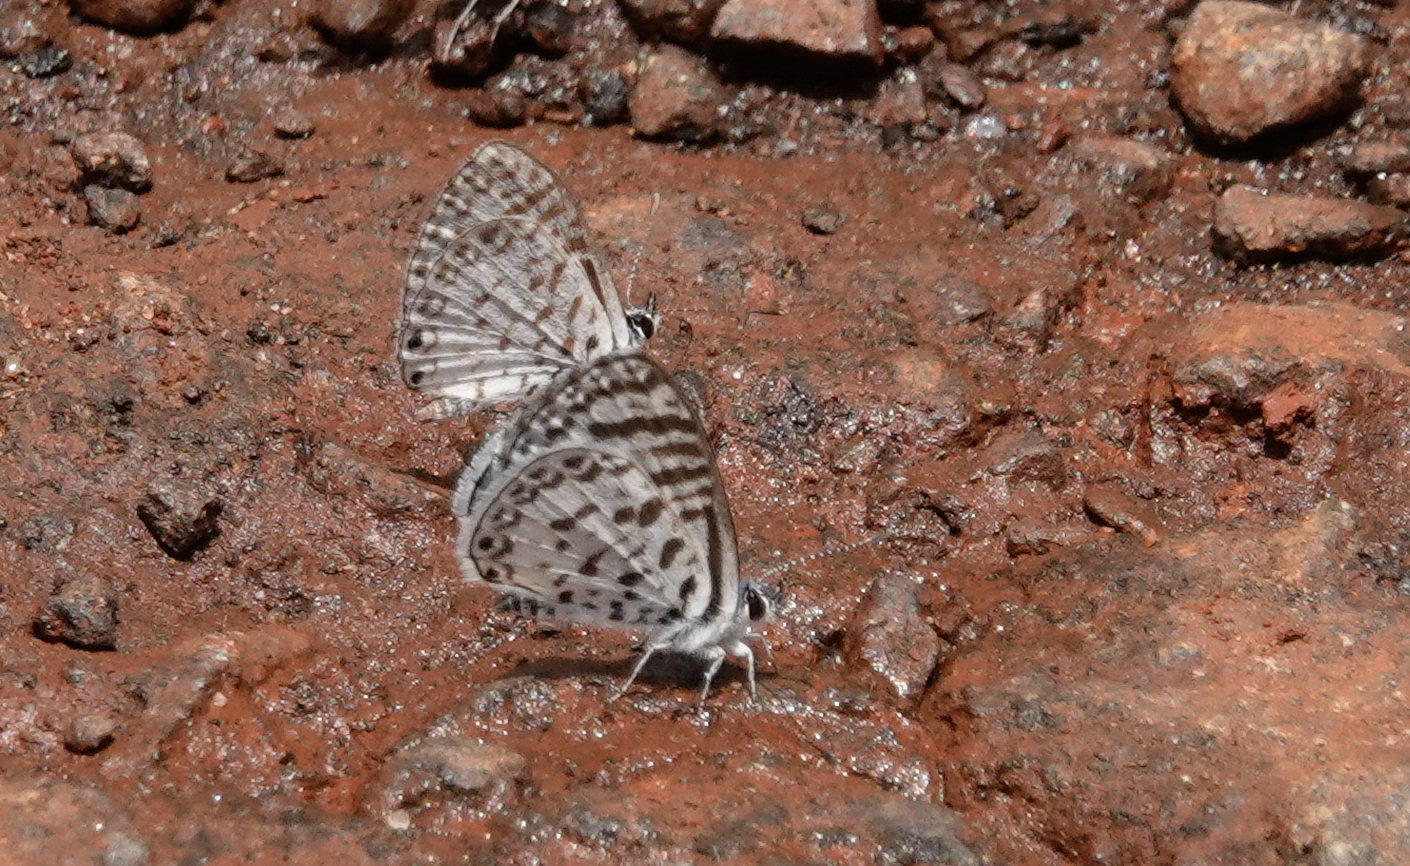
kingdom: Animalia
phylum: Arthropoda
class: Insecta
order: Lepidoptera
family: Lycaenidae
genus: Leptotes
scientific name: Leptotes cassius
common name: Cassius blue
